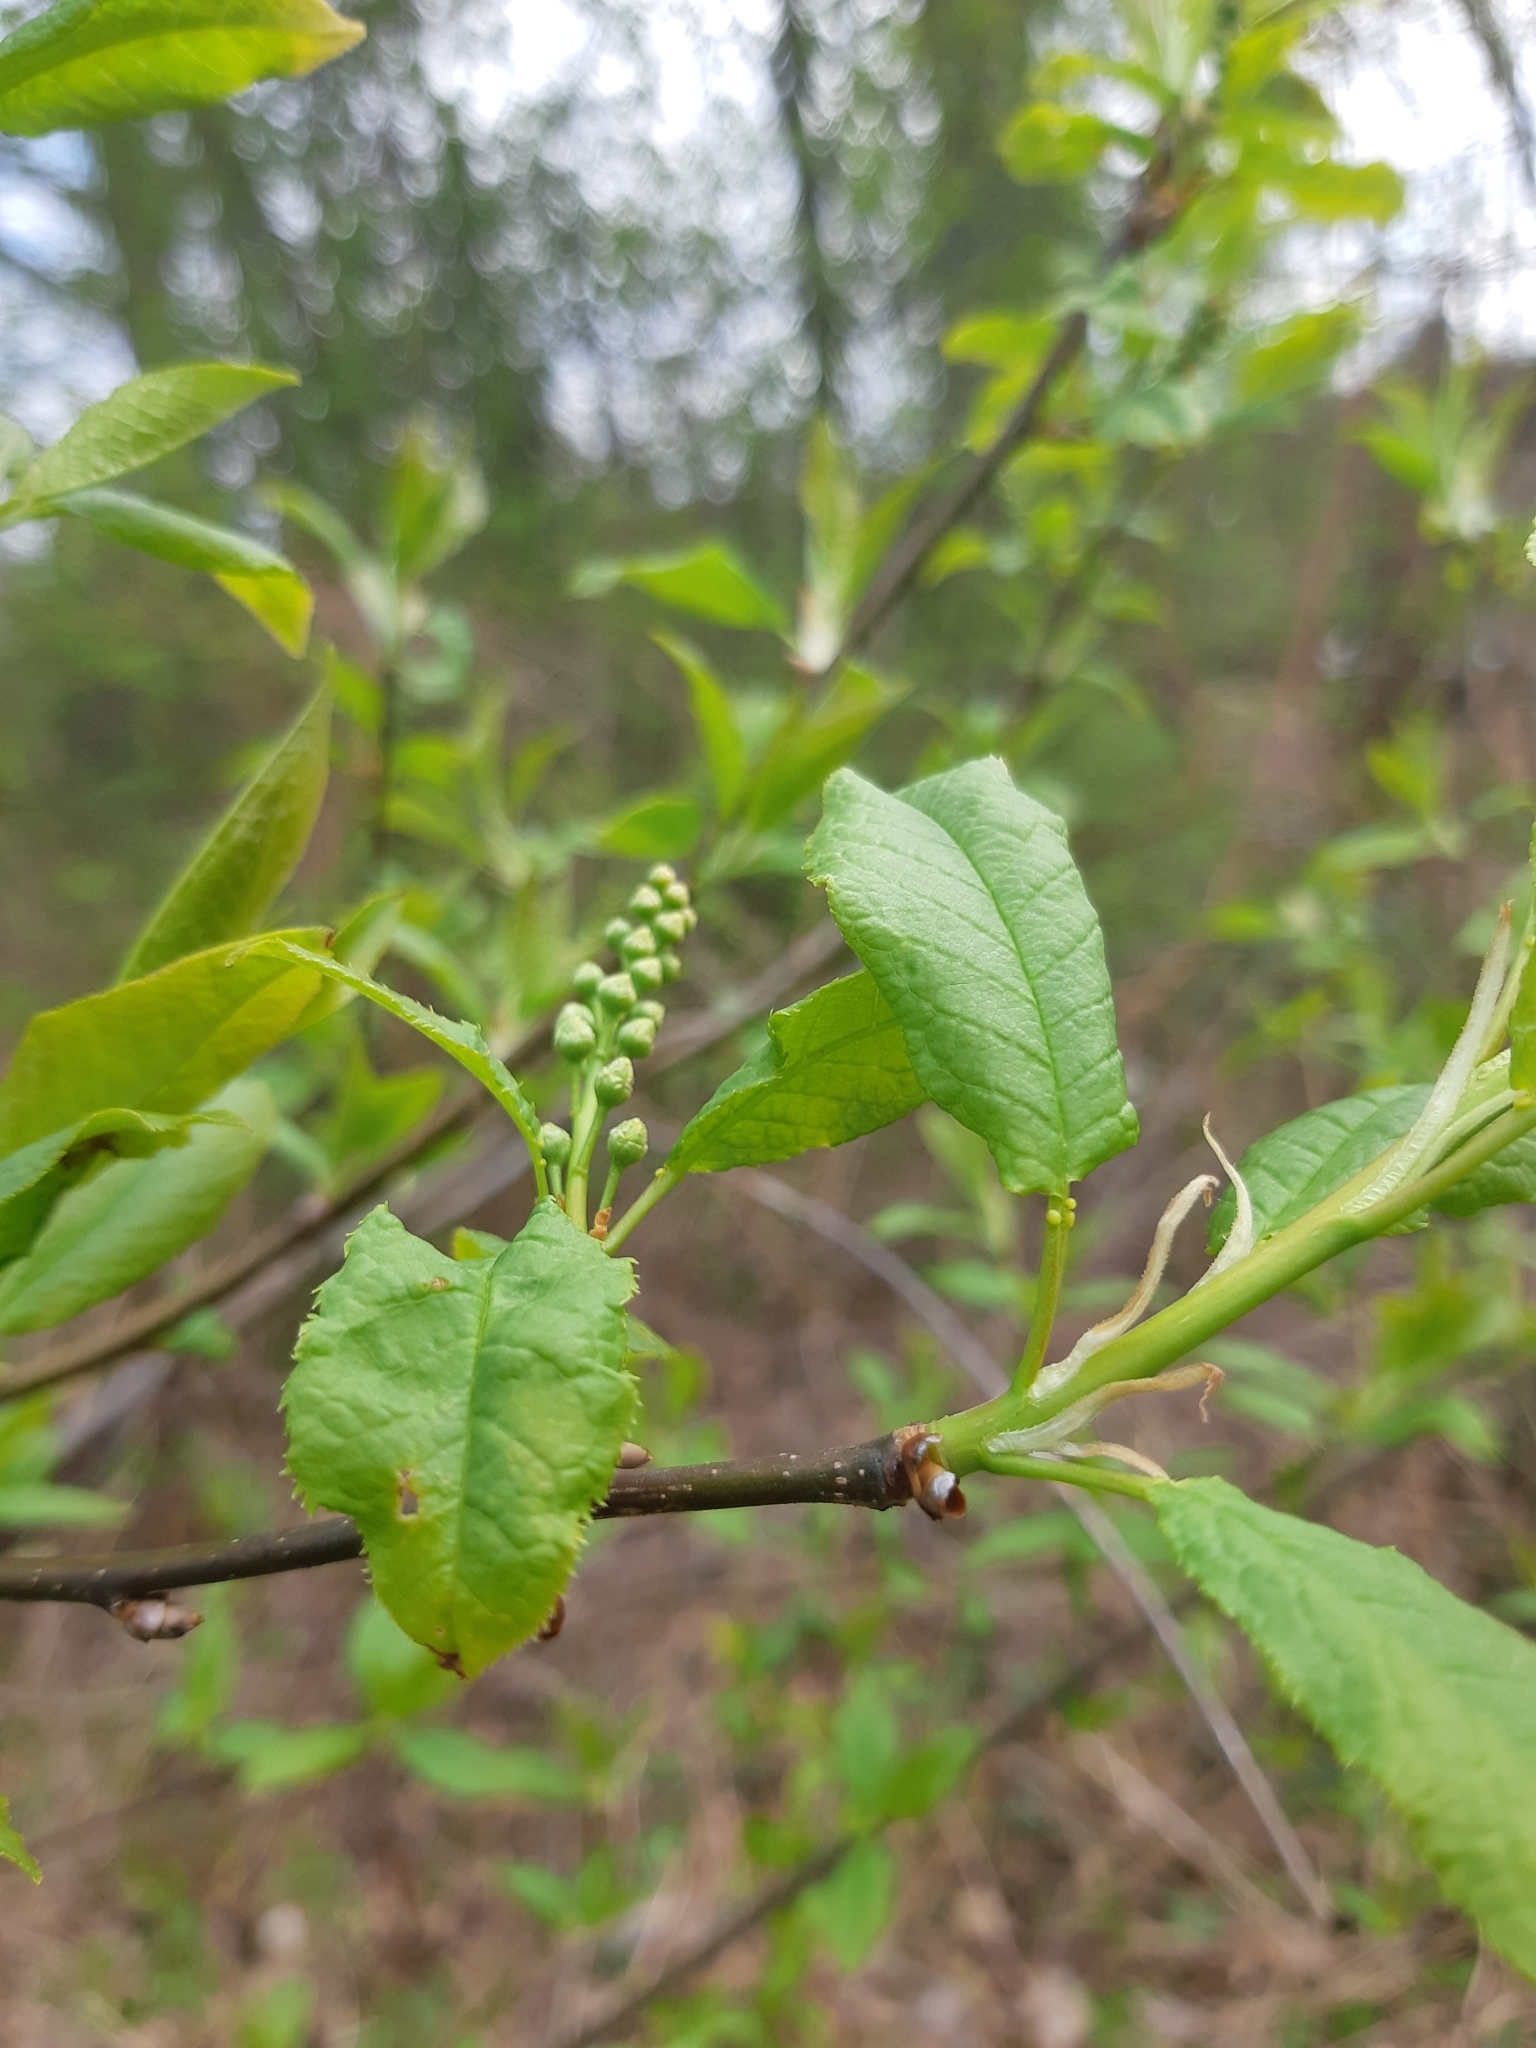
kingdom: Plantae
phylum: Tracheophyta
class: Magnoliopsida
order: Rosales
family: Rosaceae
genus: Prunus
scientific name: Prunus padus
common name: Bird cherry
